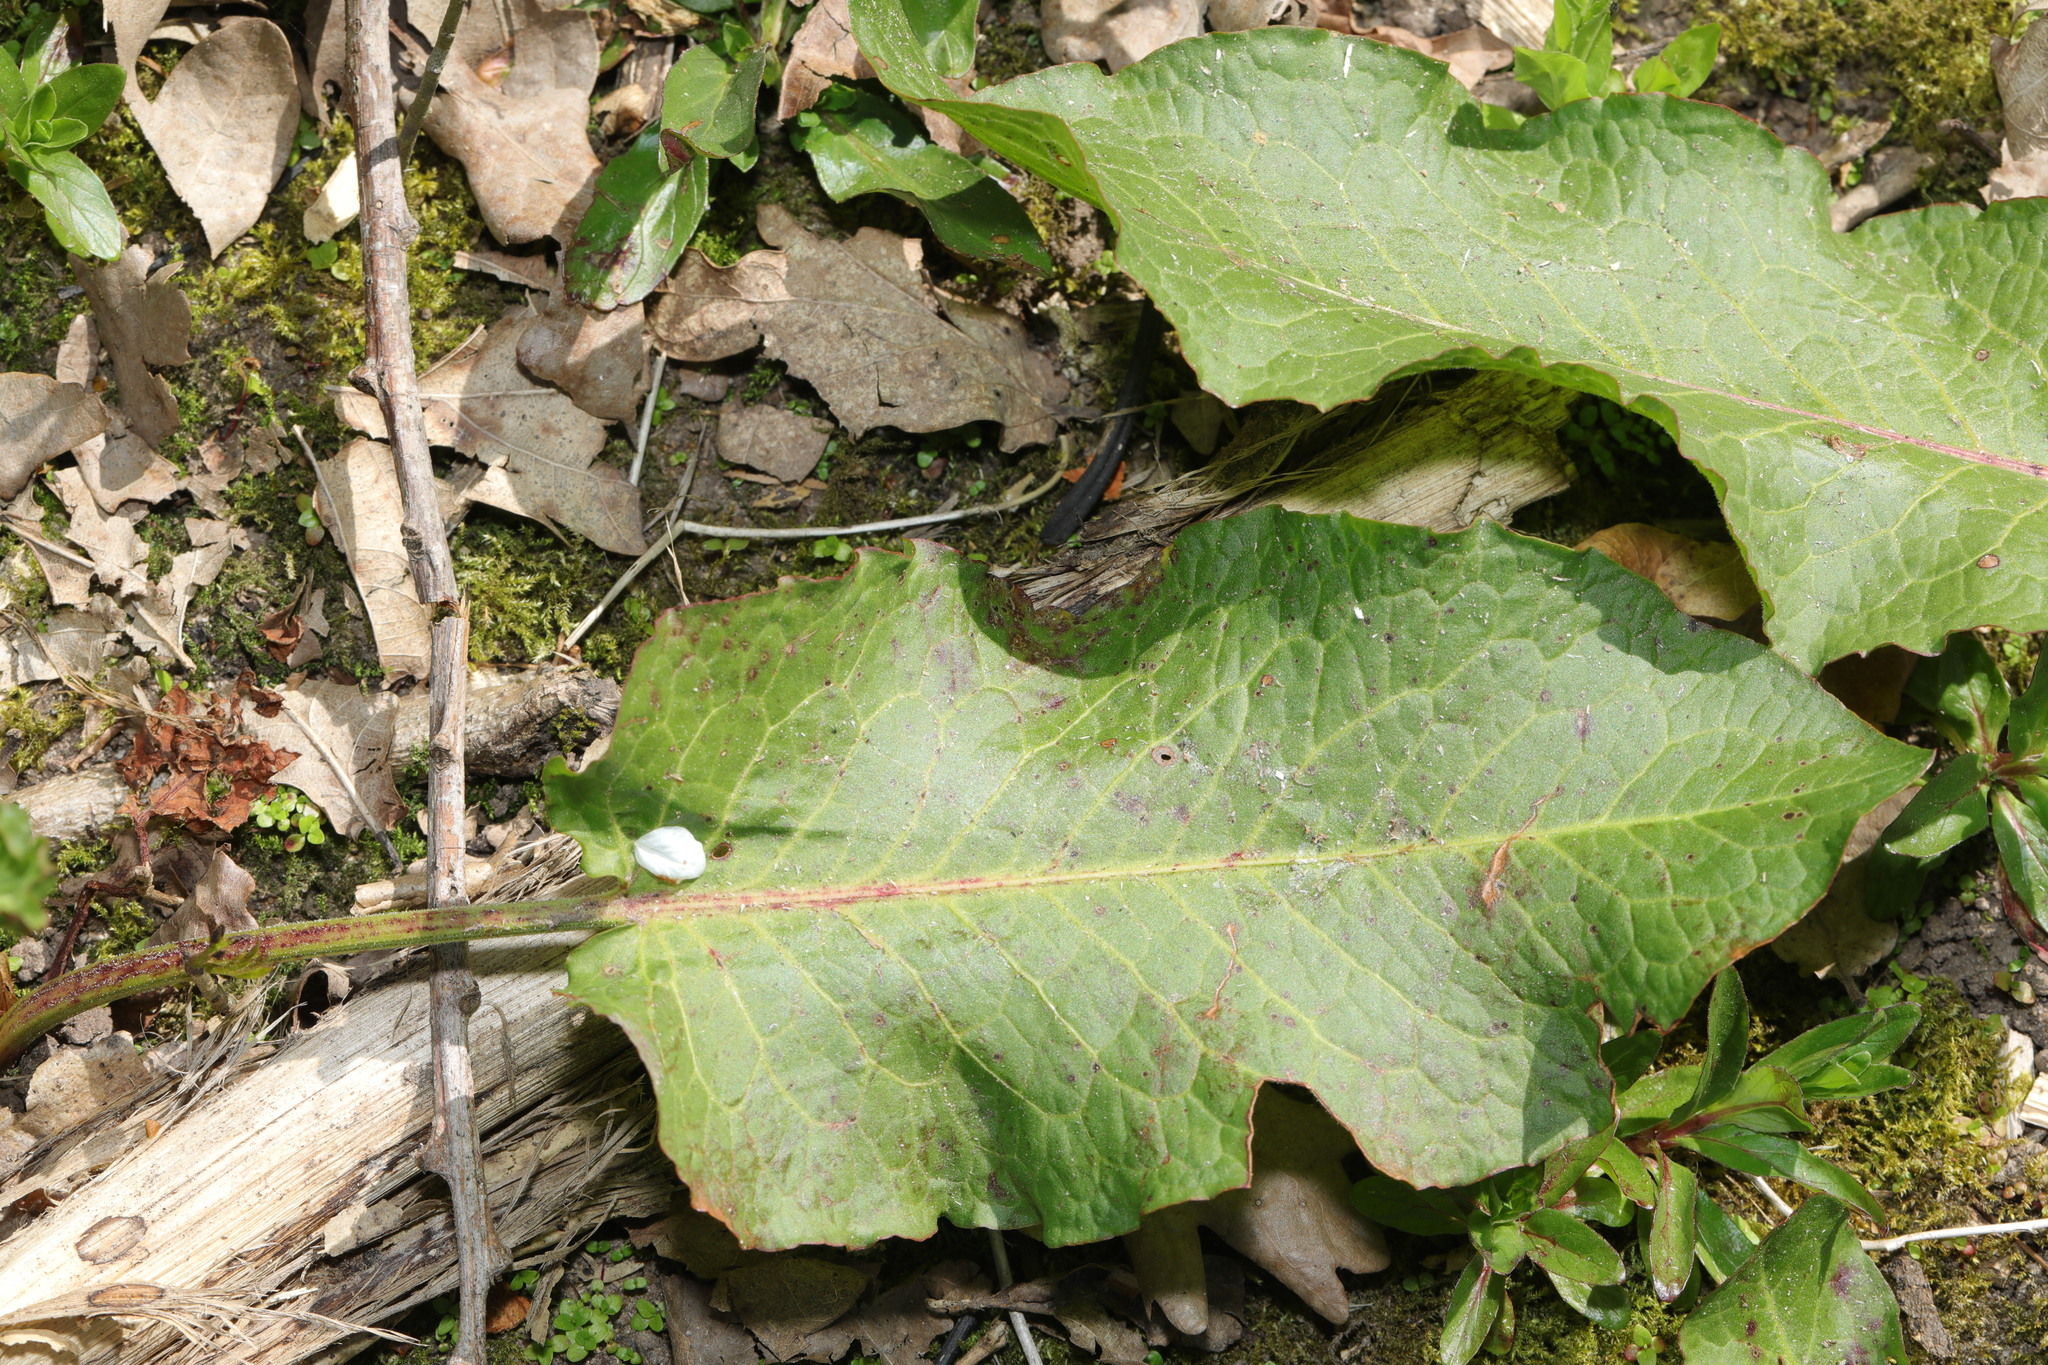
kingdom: Plantae
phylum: Tracheophyta
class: Magnoliopsida
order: Caryophyllales
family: Polygonaceae
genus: Rumex
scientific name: Rumex obtusifolius
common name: Bitter dock
